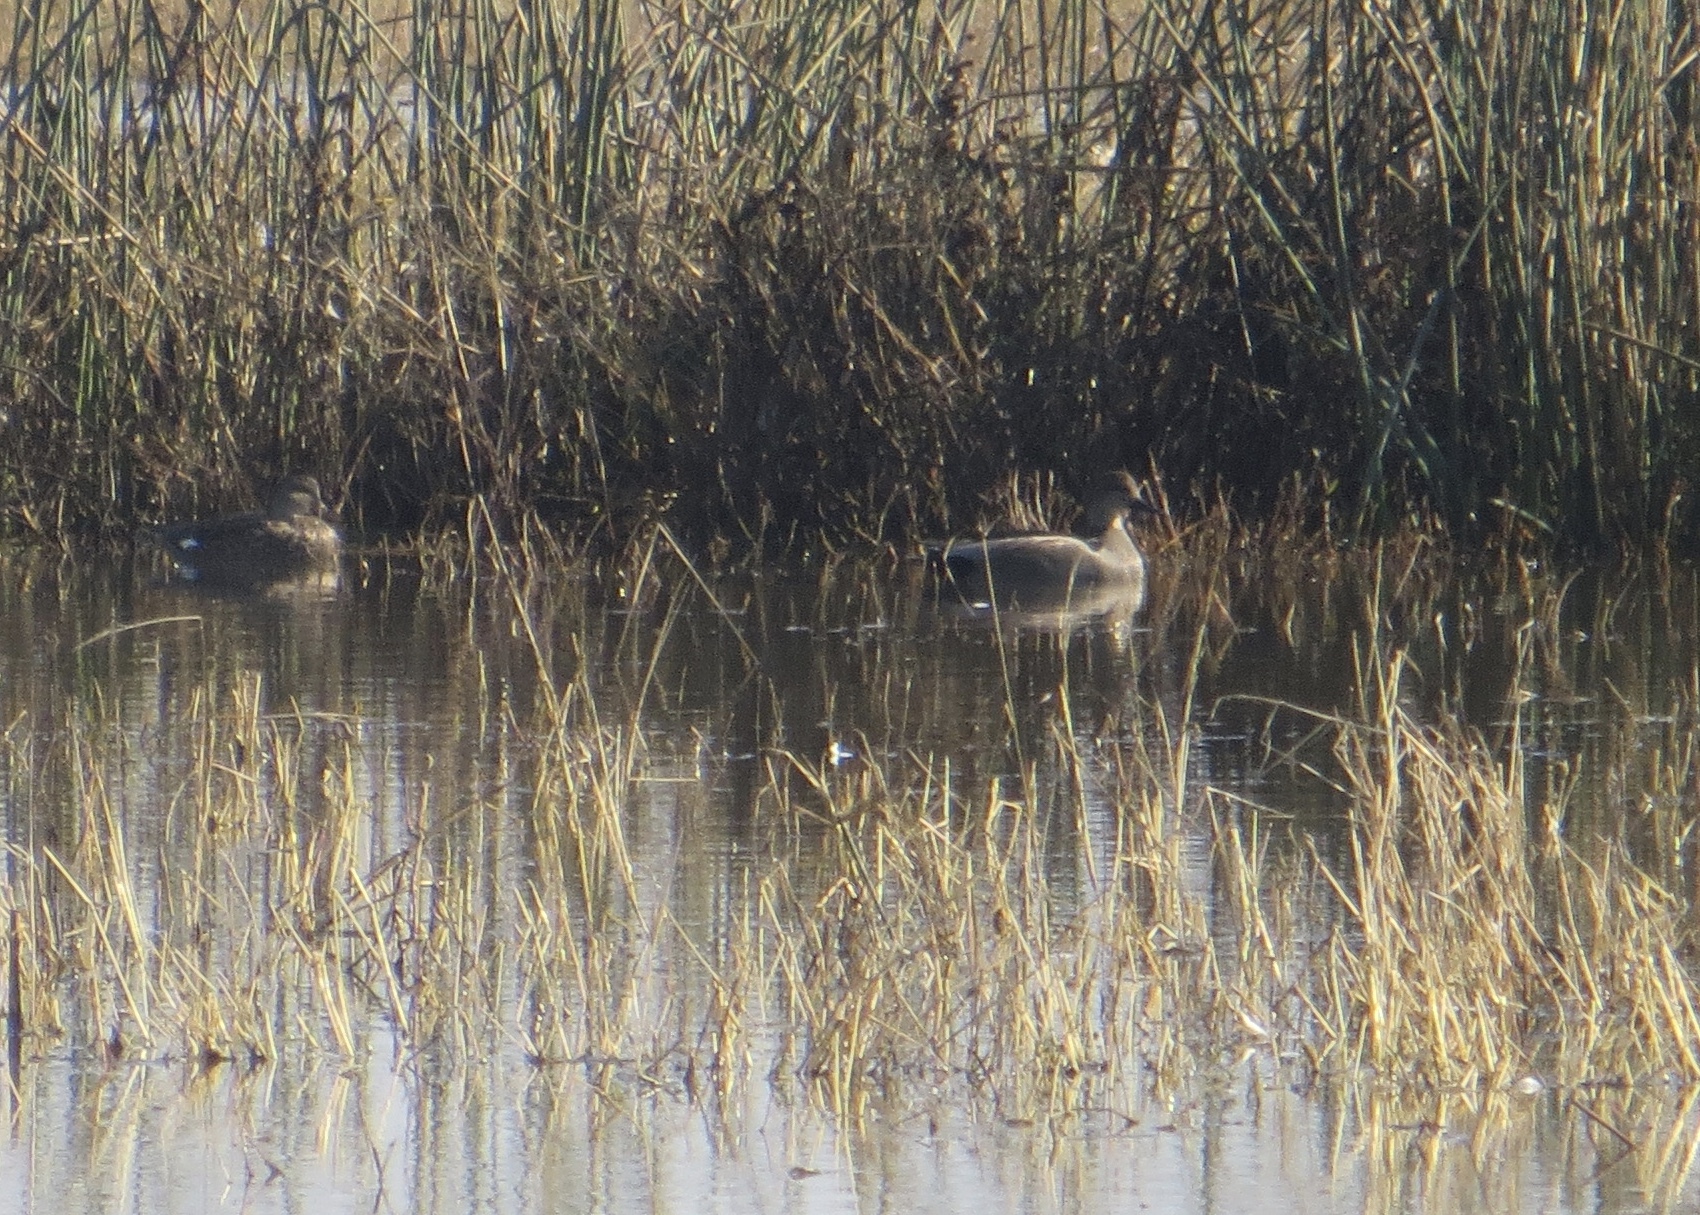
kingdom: Animalia
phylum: Chordata
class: Aves
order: Anseriformes
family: Anatidae
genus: Mareca
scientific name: Mareca strepera
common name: Gadwall
